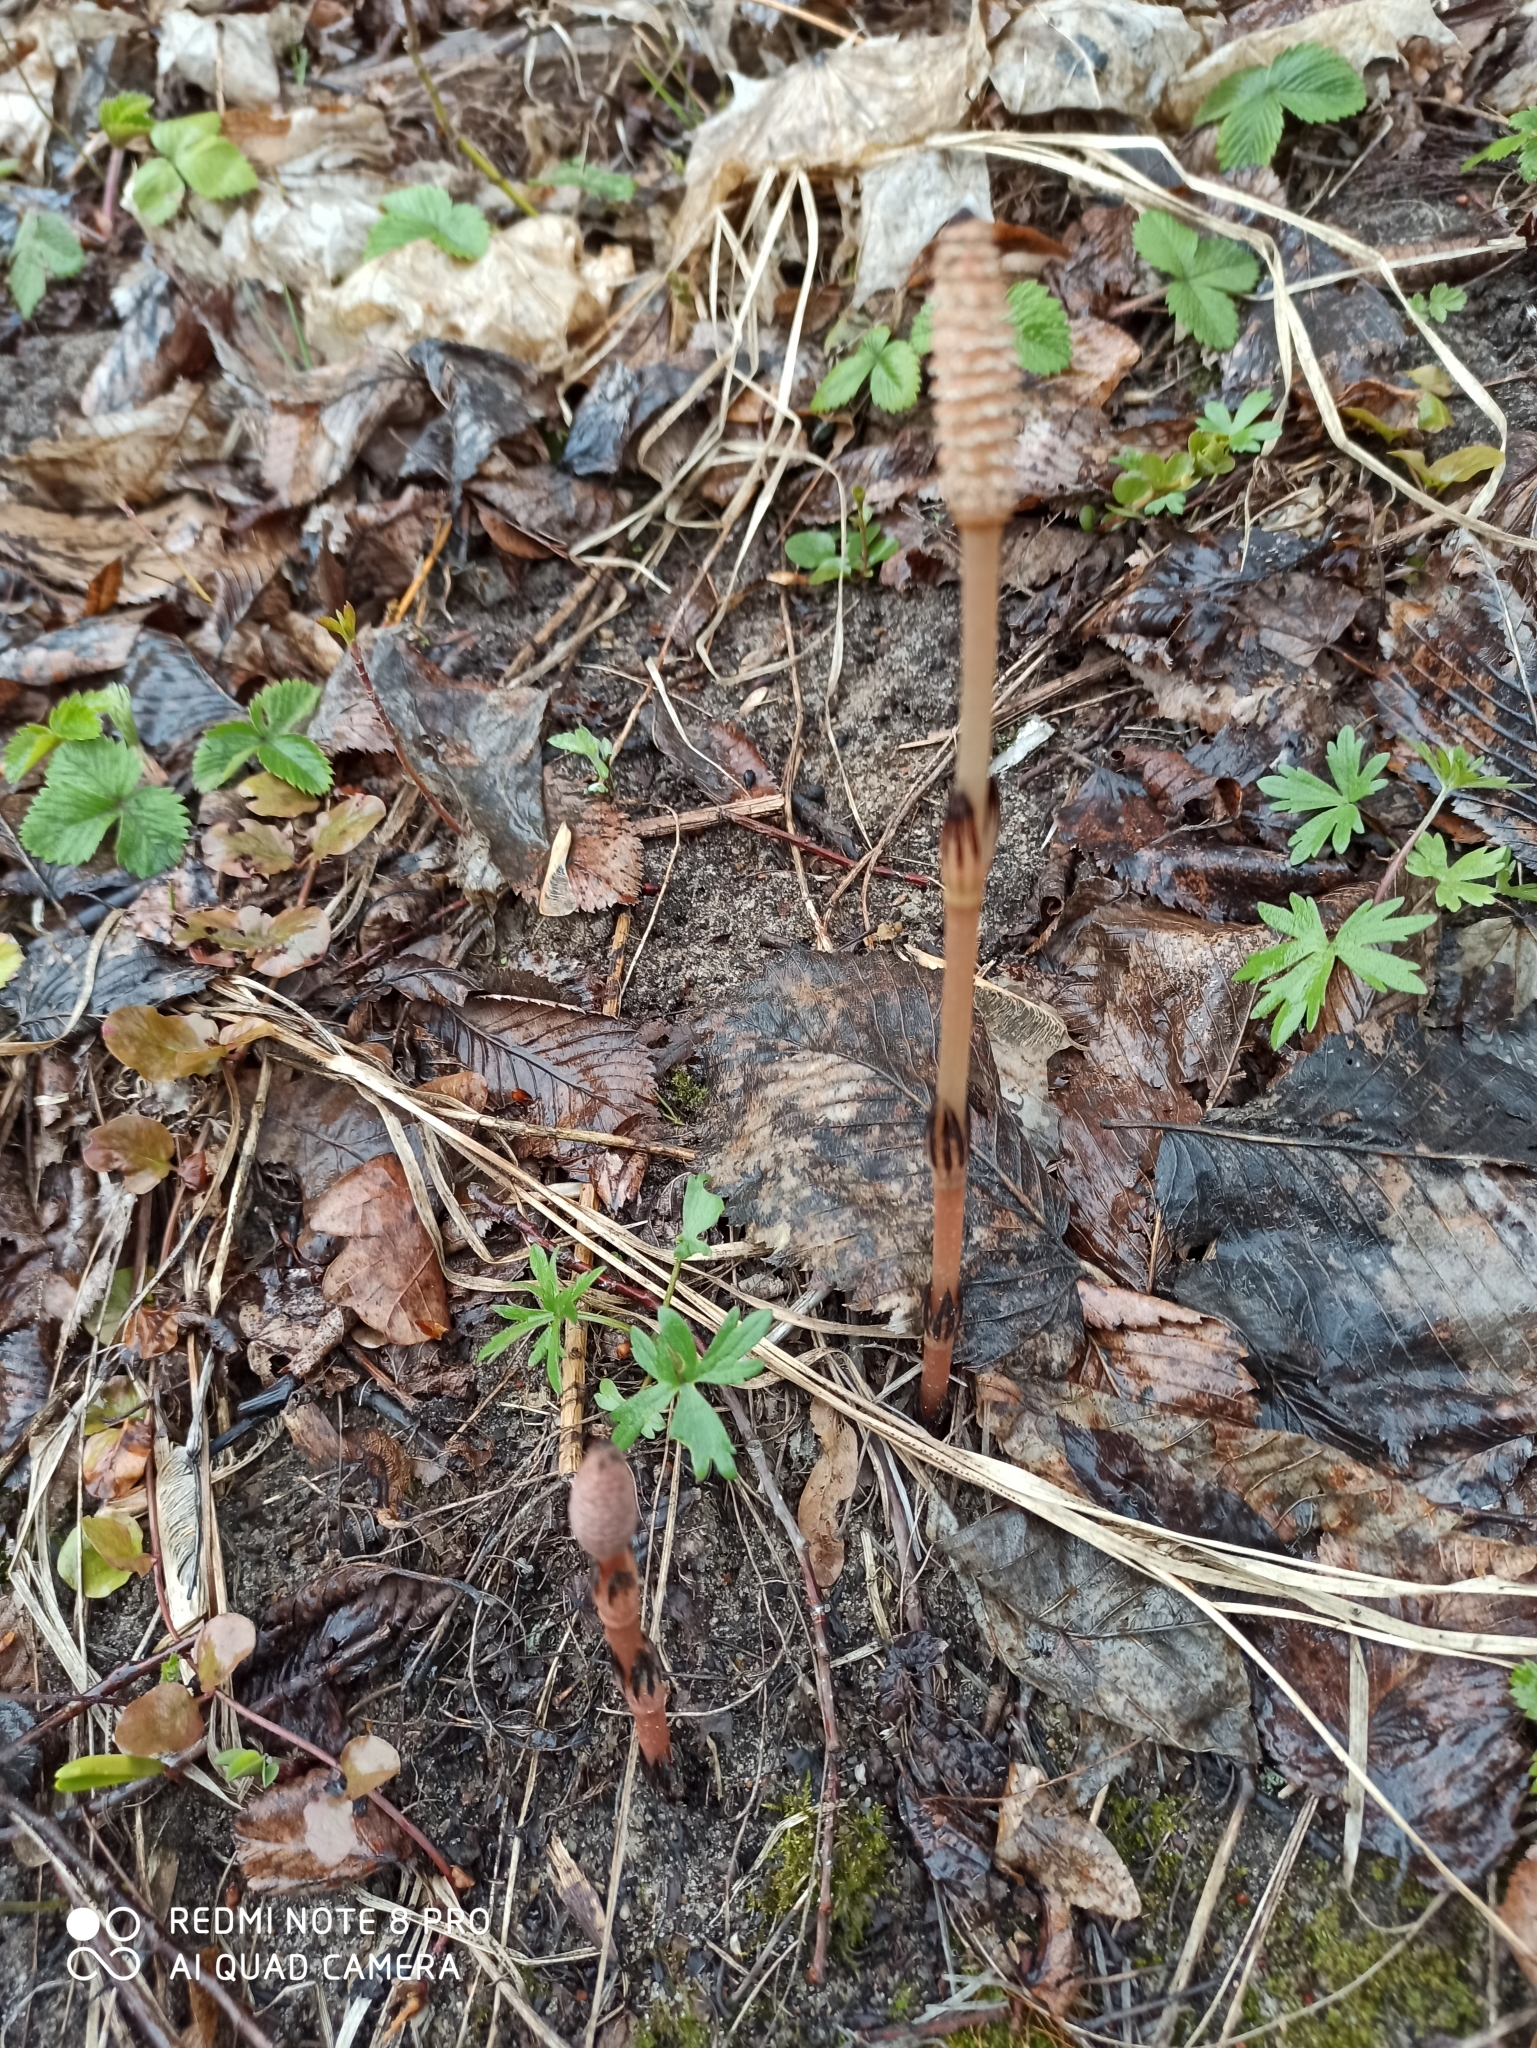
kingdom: Plantae
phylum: Tracheophyta
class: Polypodiopsida
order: Equisetales
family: Equisetaceae
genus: Equisetum
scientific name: Equisetum arvense
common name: Field horsetail
